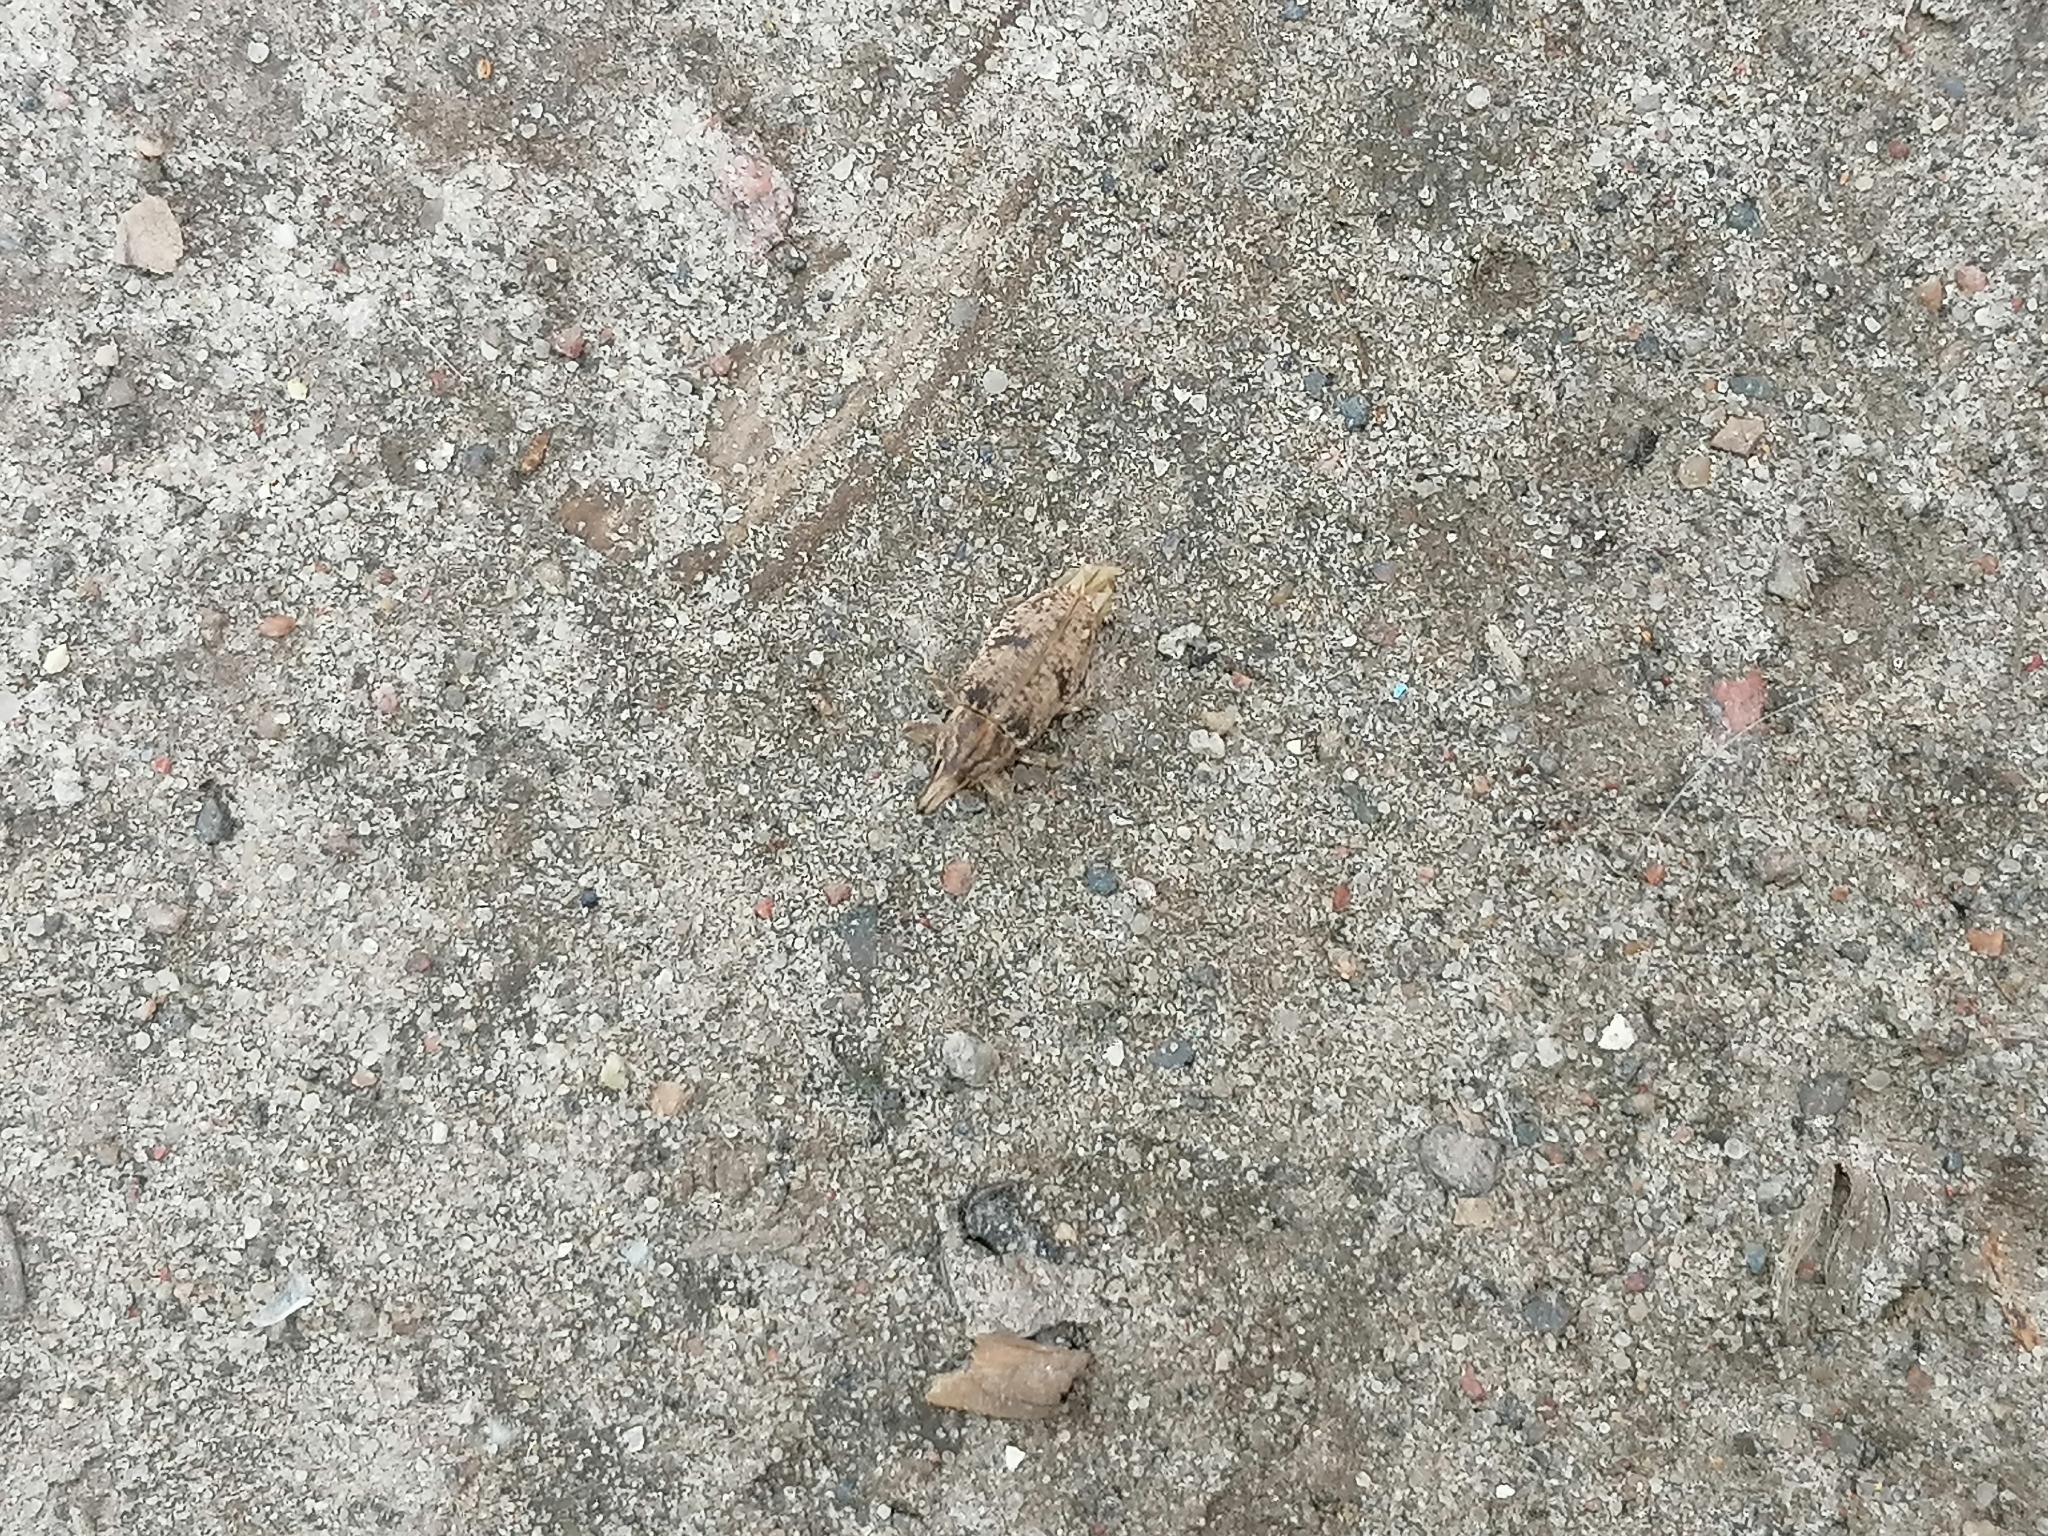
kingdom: Animalia
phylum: Arthropoda
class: Insecta
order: Coleoptera
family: Curculionidae
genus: Asproparthenis
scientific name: Asproparthenis punctiventris
